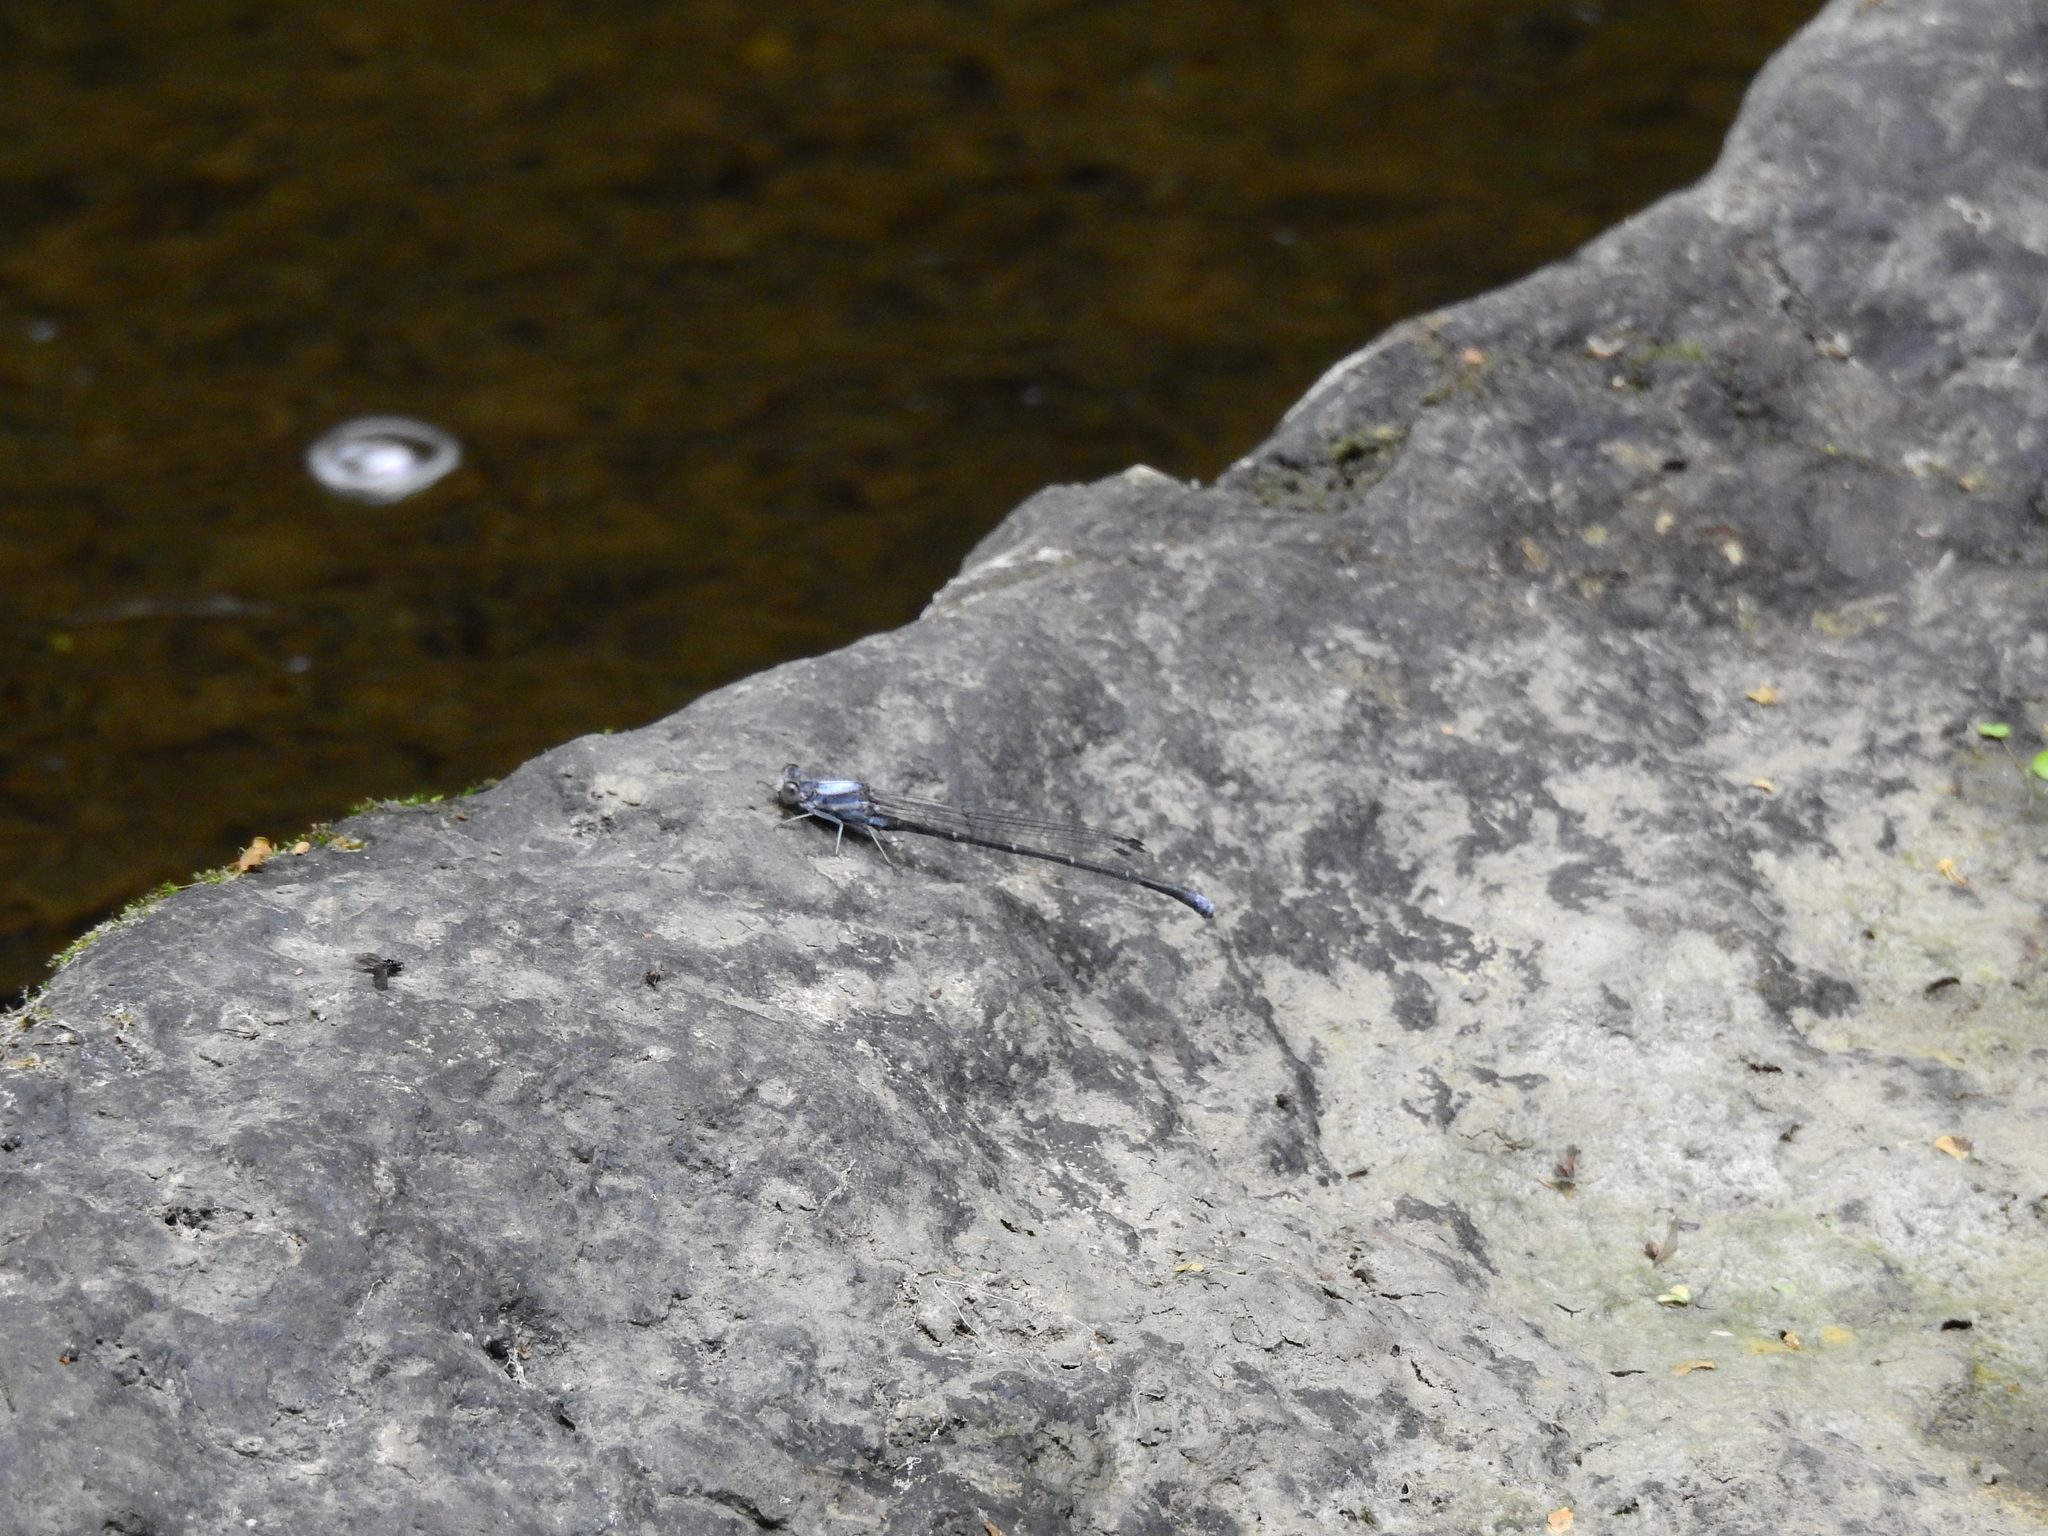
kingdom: Animalia
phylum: Arthropoda
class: Insecta
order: Odonata
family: Coenagrionidae
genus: Argia
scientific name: Argia moesta
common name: Powdered dancer
